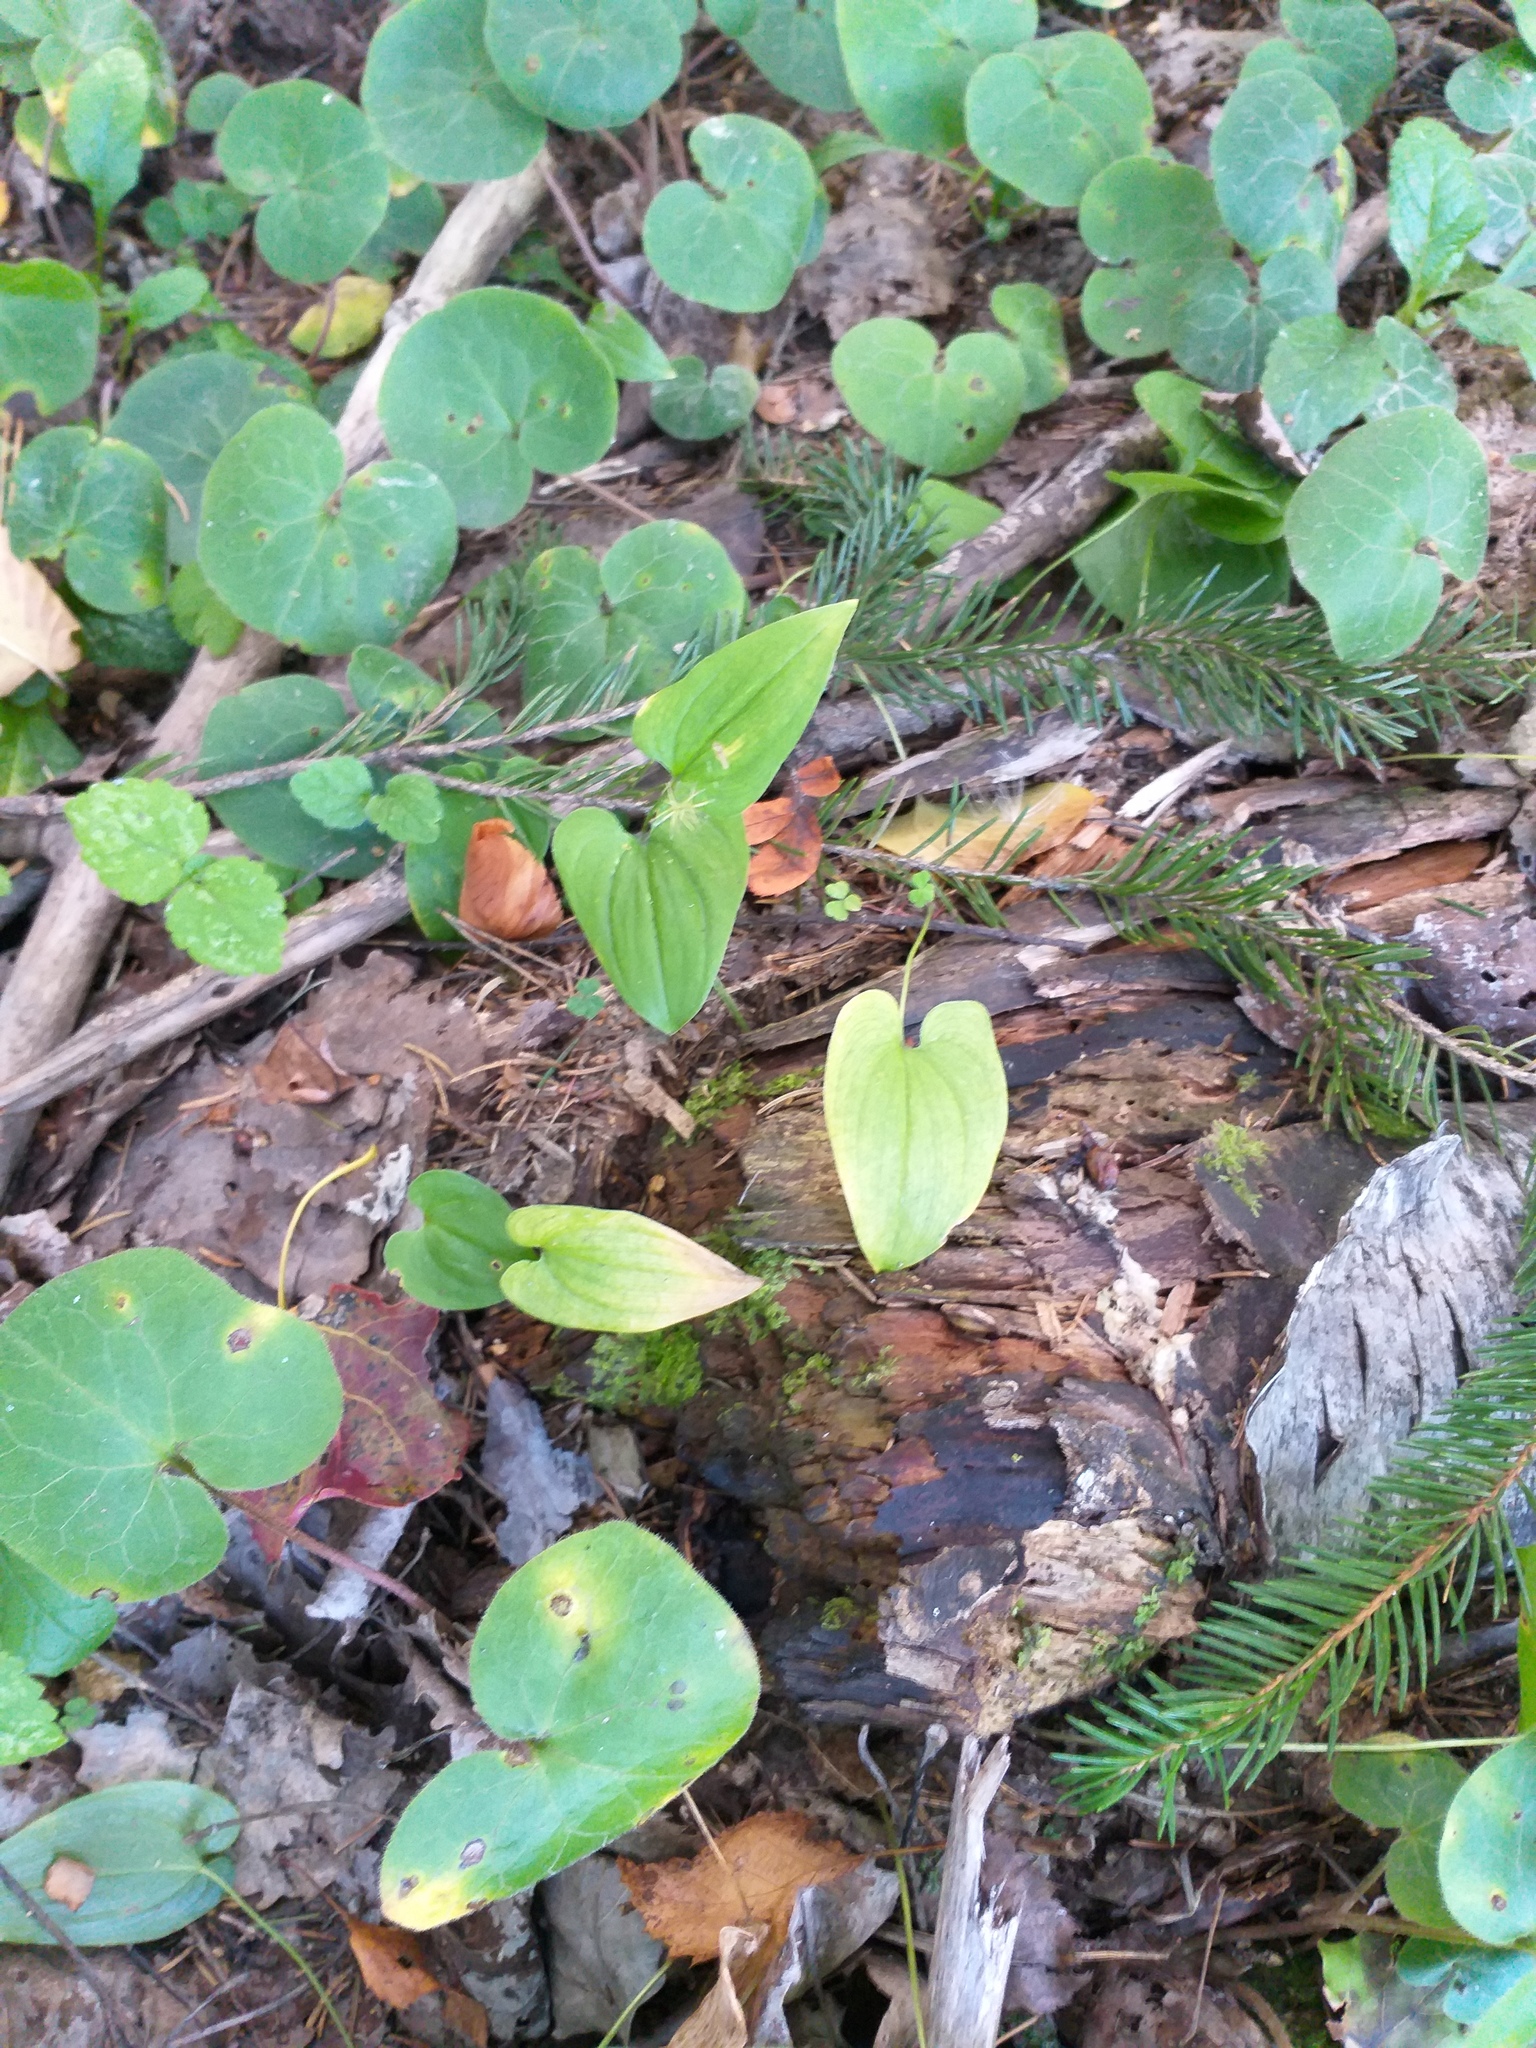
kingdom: Plantae
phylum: Tracheophyta
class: Liliopsida
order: Asparagales
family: Asparagaceae
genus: Maianthemum
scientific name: Maianthemum bifolium
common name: May lily
